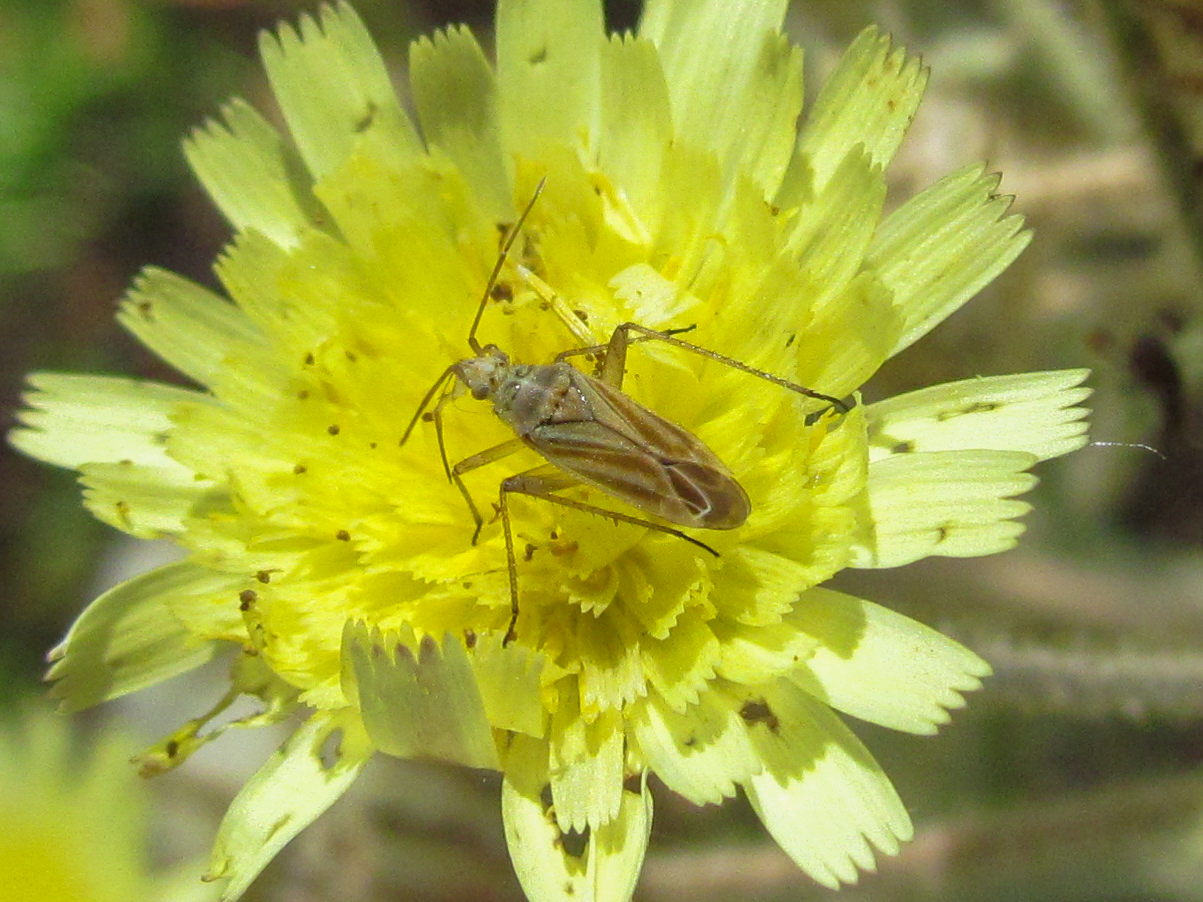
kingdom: Animalia
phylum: Arthropoda
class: Insecta
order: Hemiptera
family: Miridae
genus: Hoplomachus
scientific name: Hoplomachus thunbergii
